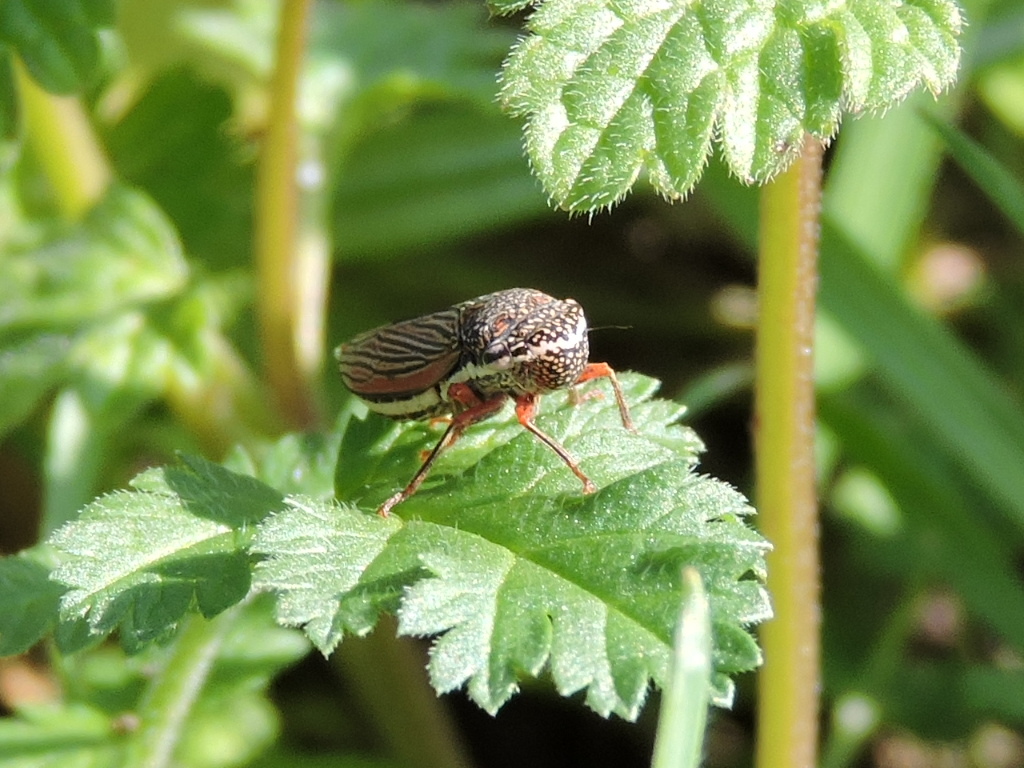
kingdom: Animalia
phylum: Arthropoda
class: Insecta
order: Hemiptera
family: Cicadellidae
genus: Cuerna
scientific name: Cuerna costalis
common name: Lateral-lined sharpshooter
